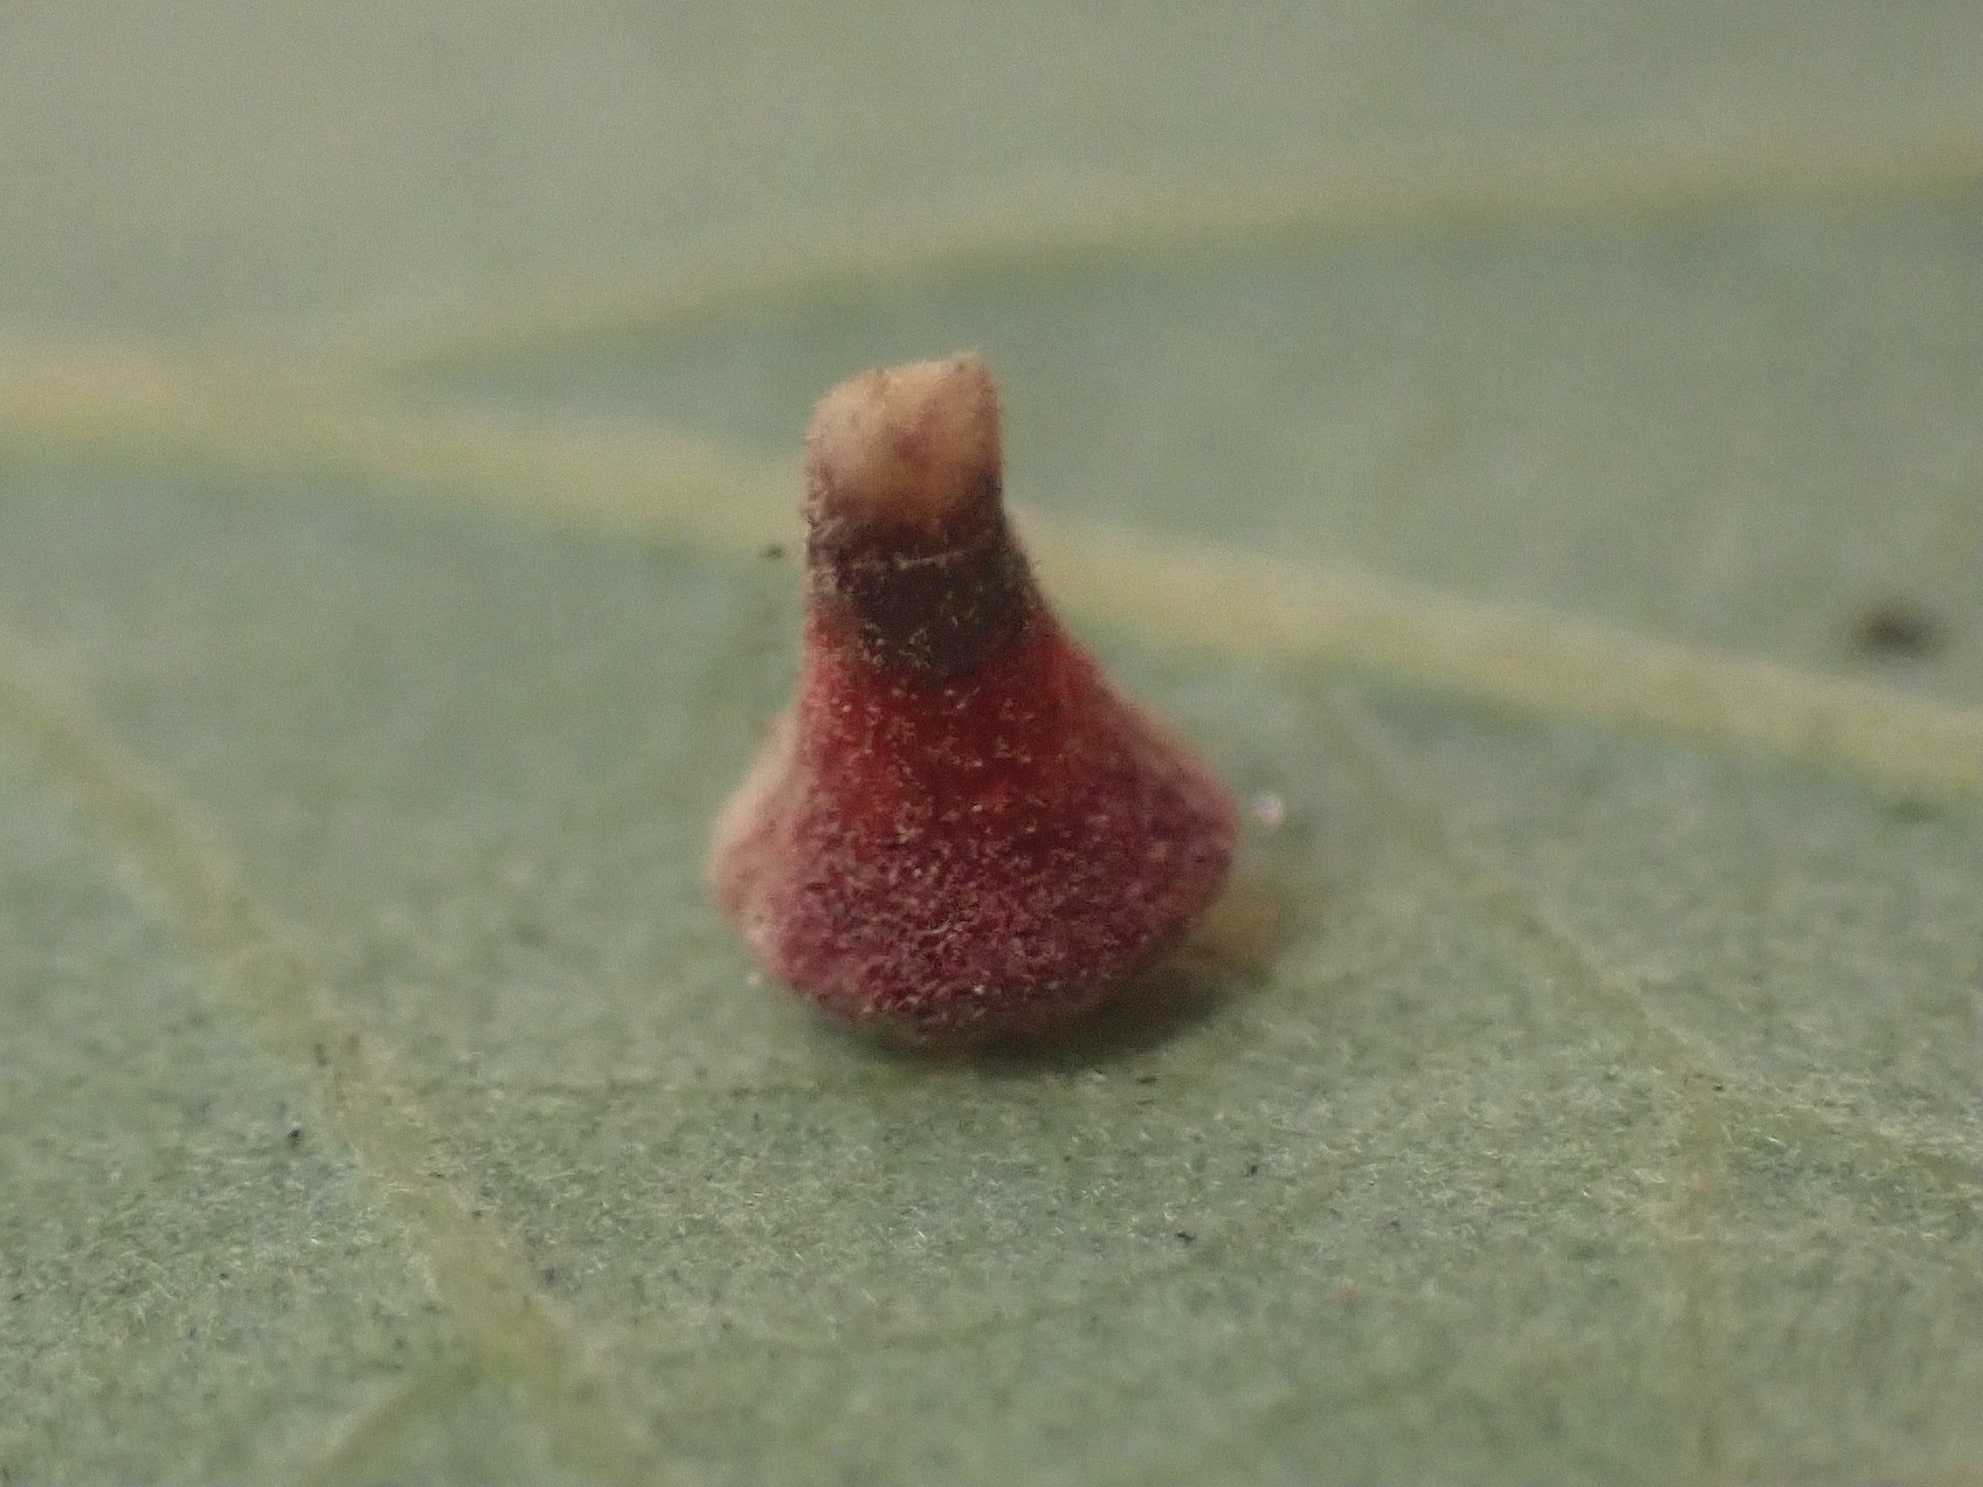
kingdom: Animalia
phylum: Arthropoda
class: Insecta
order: Hymenoptera
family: Cynipidae
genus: Andricus
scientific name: Andricus
